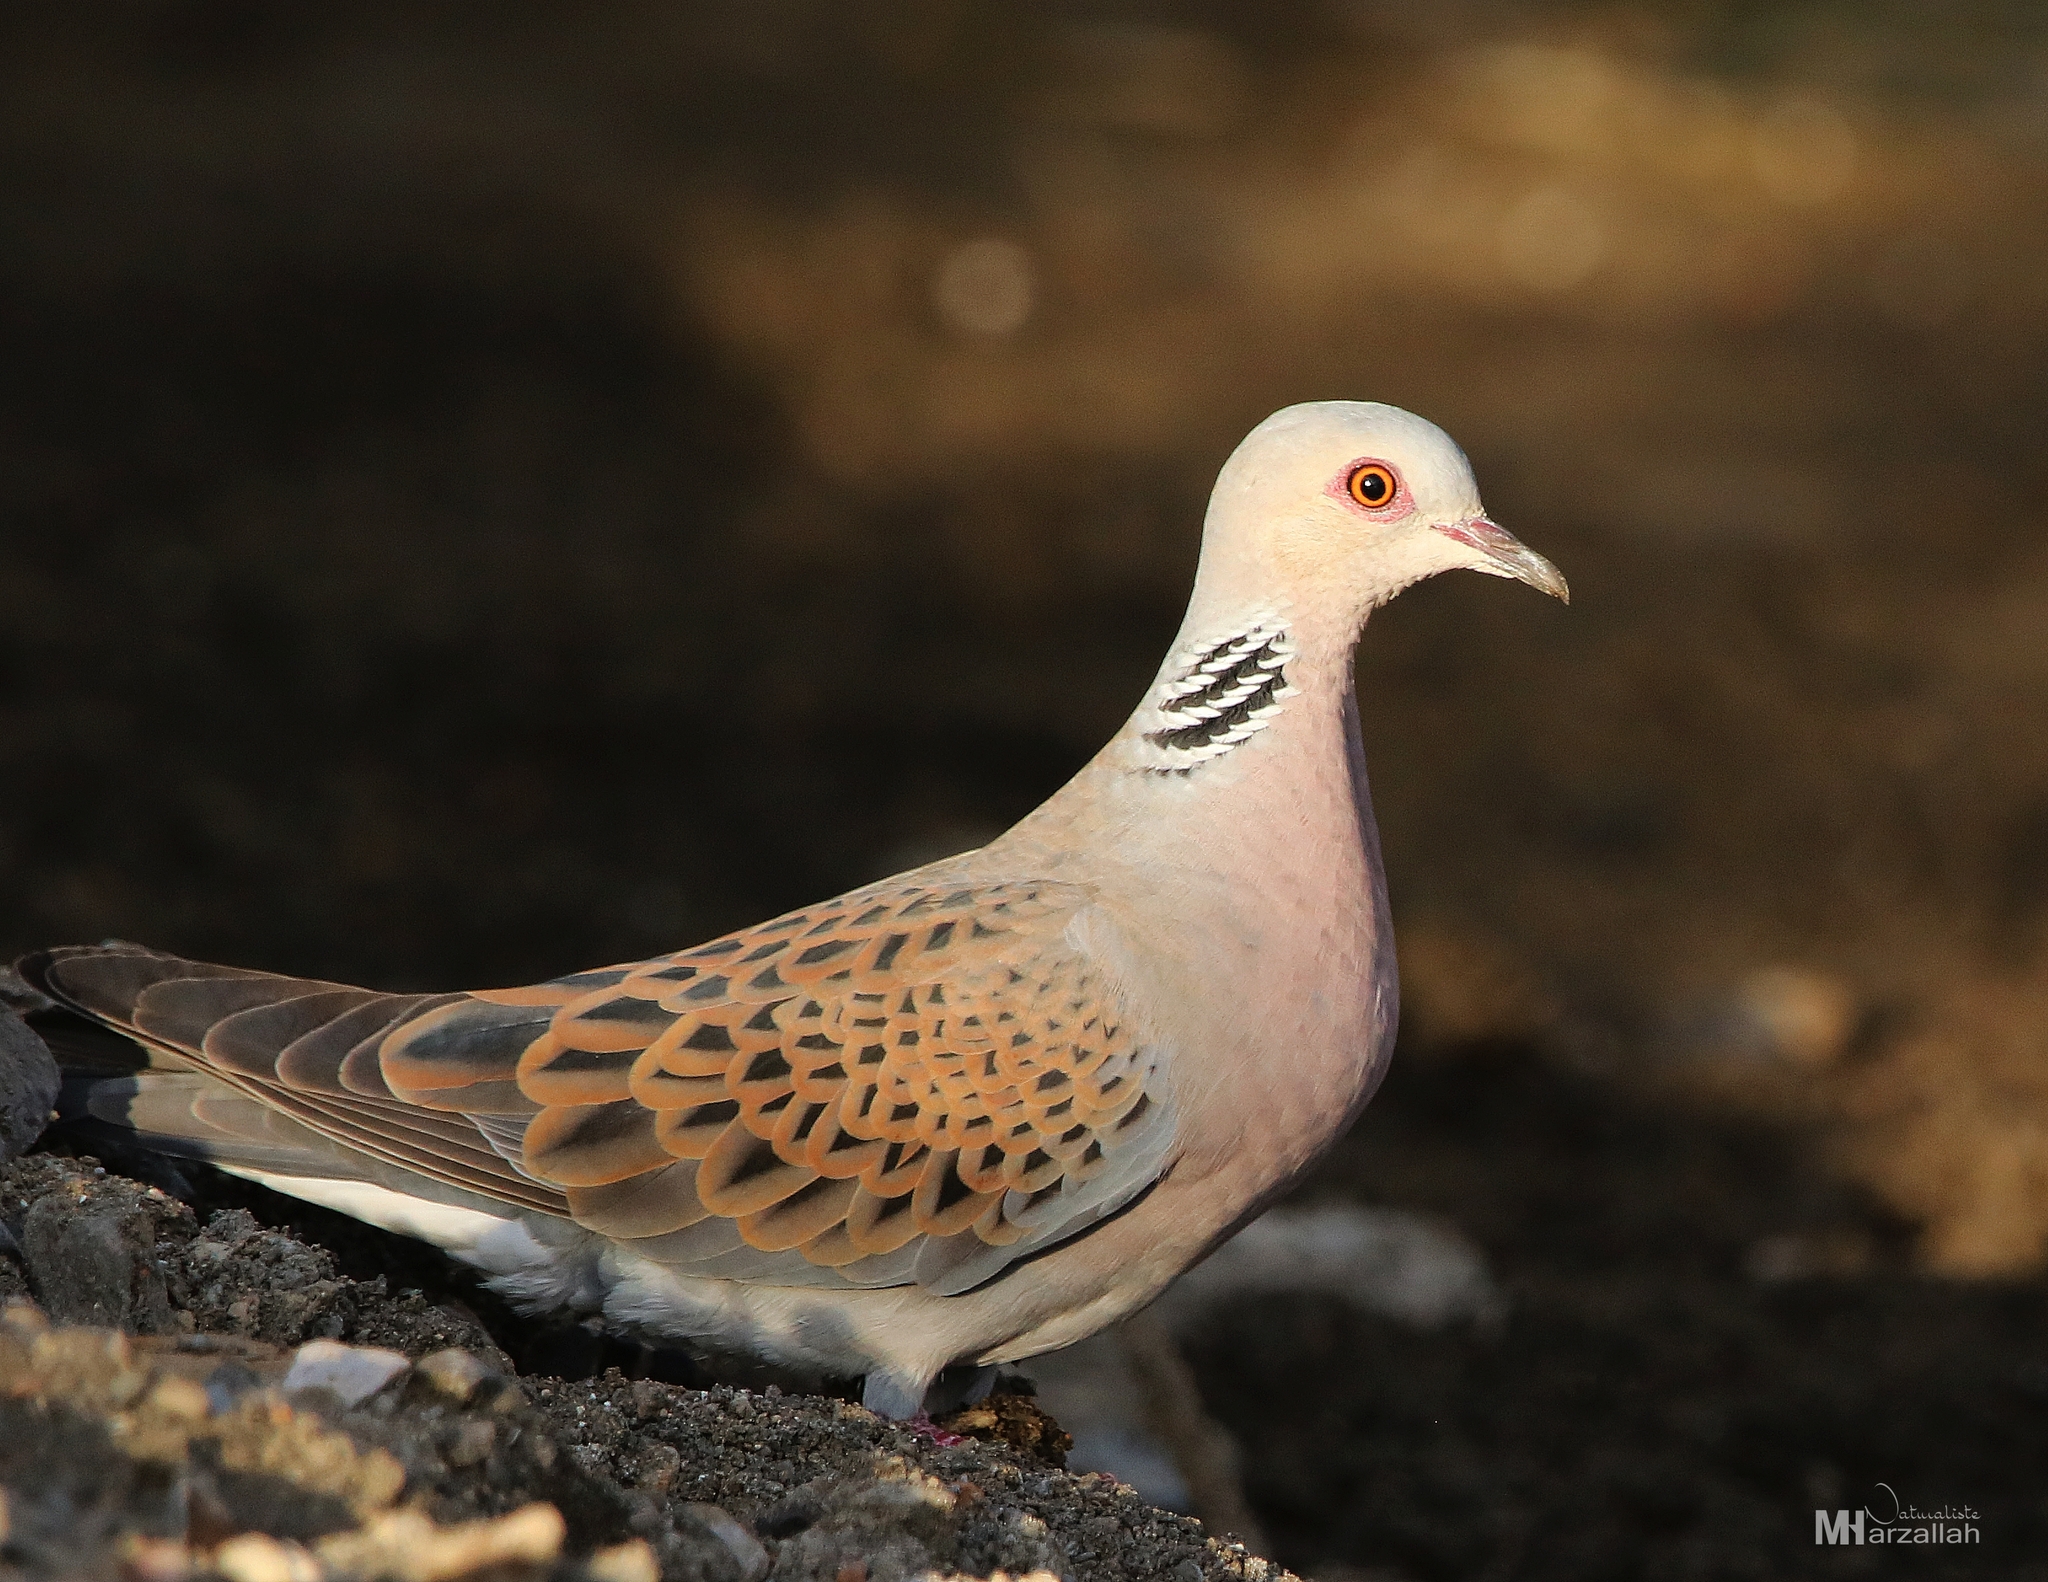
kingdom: Animalia
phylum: Chordata
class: Aves
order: Columbiformes
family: Columbidae
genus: Streptopelia
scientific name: Streptopelia turtur
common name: European turtle dove
